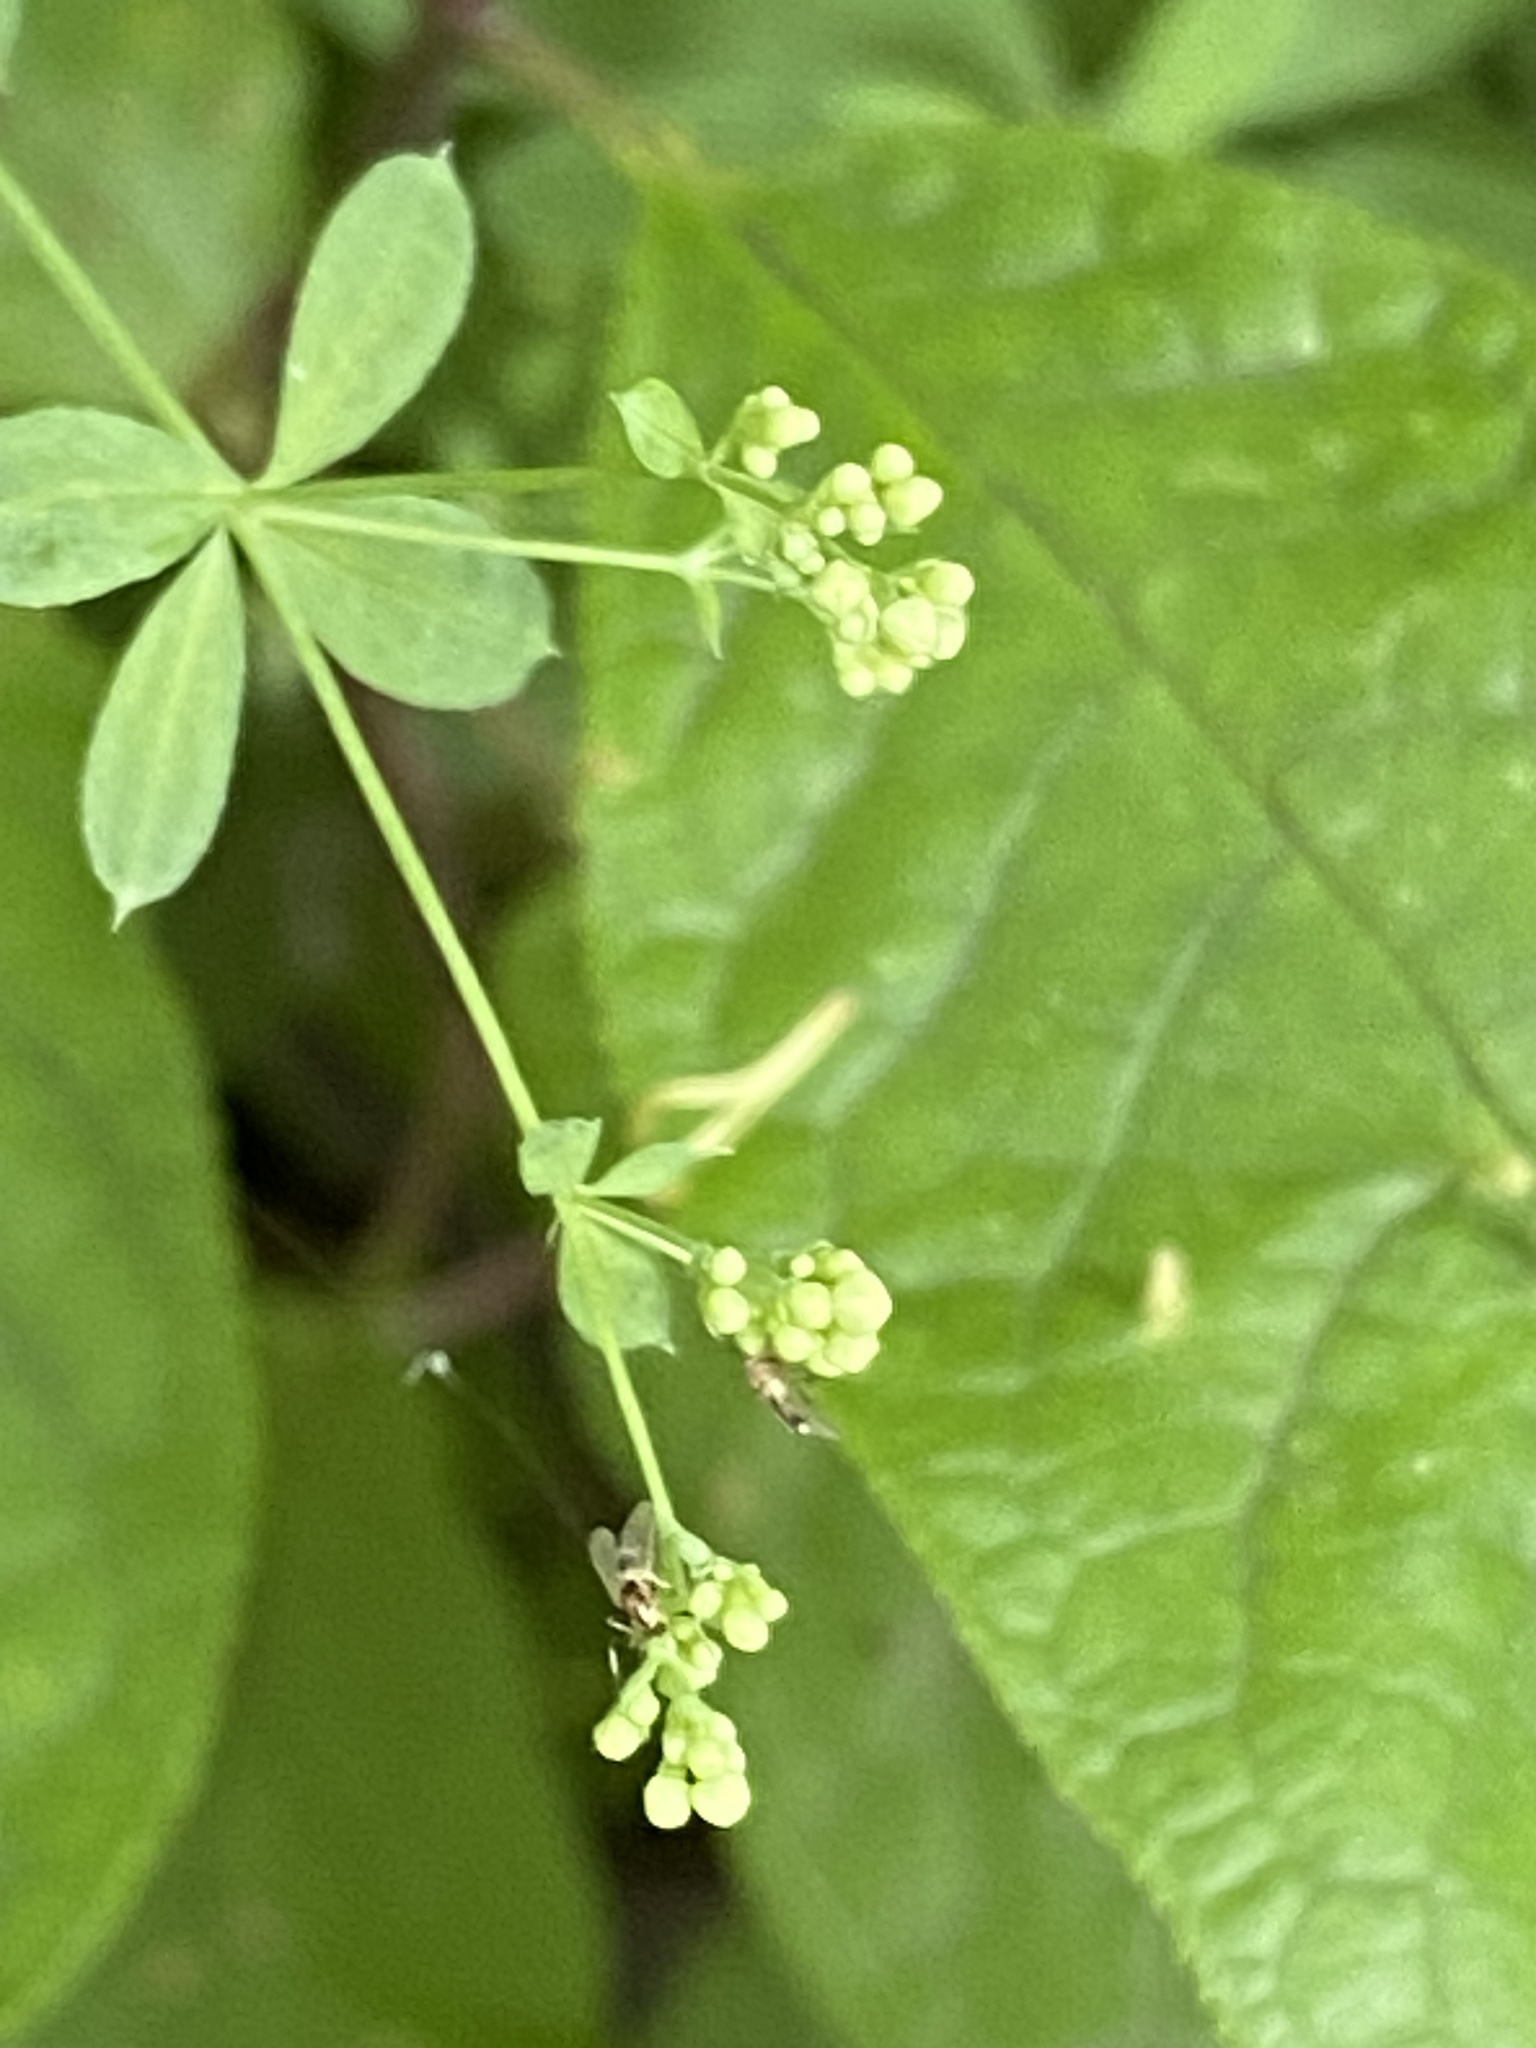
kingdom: Plantae
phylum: Tracheophyta
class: Magnoliopsida
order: Gentianales
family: Rubiaceae
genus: Galium
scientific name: Galium intermedium
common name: Bedstraw
